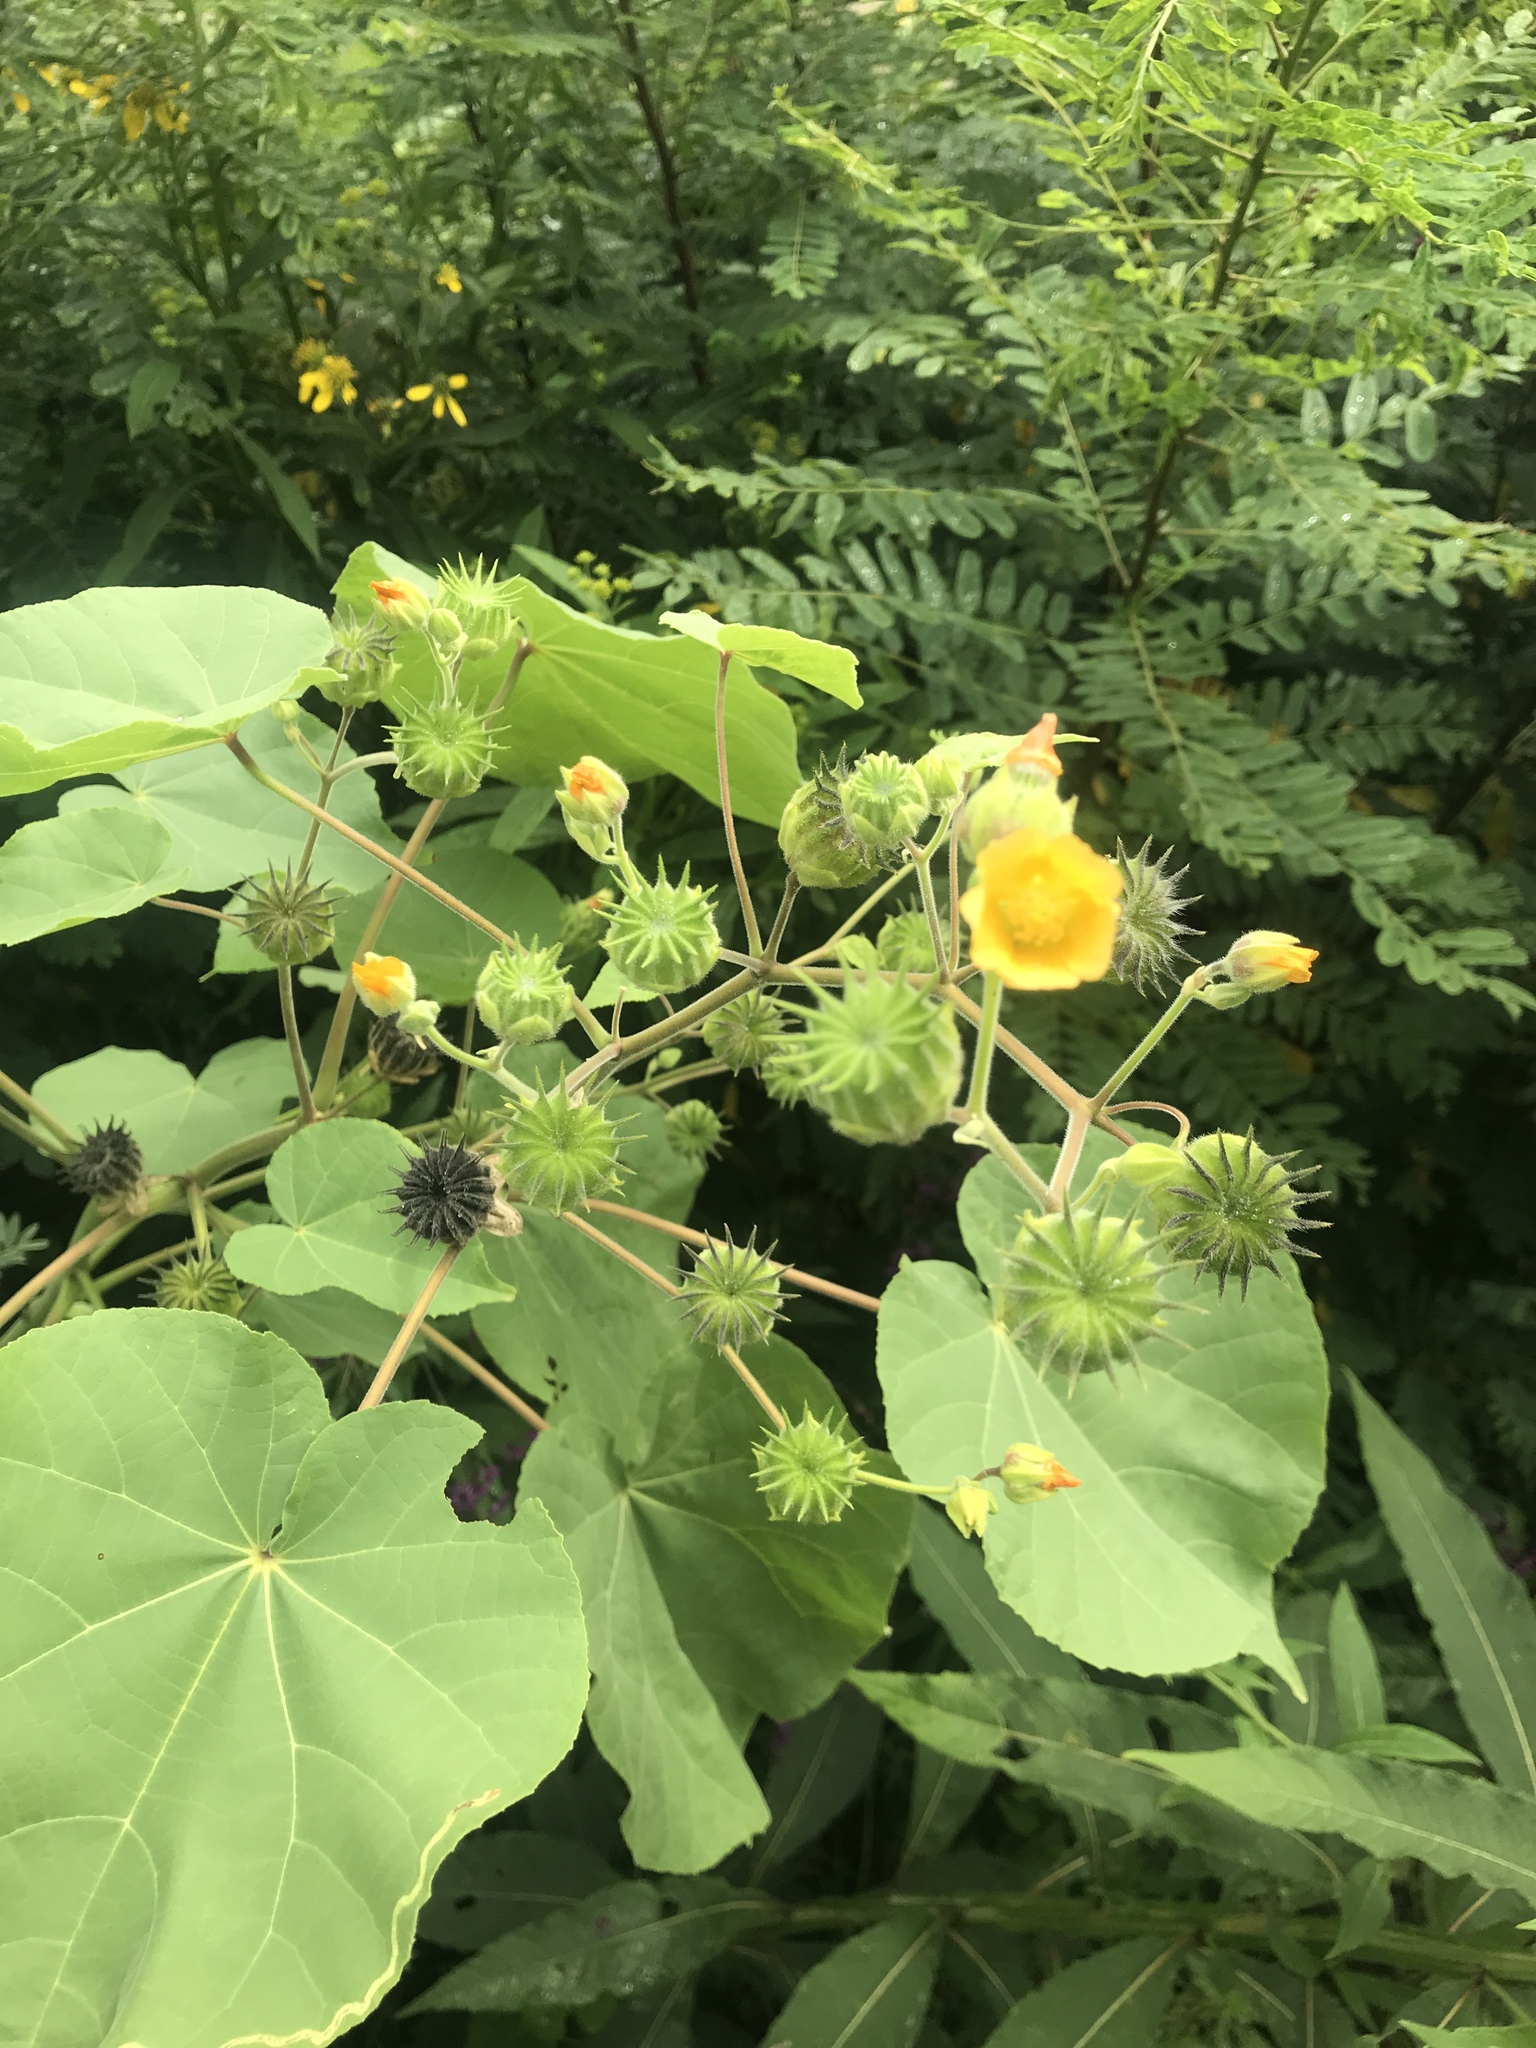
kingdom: Plantae
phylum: Tracheophyta
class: Magnoliopsida
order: Malvales
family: Malvaceae
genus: Abutilon
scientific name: Abutilon theophrasti
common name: Velvetleaf
